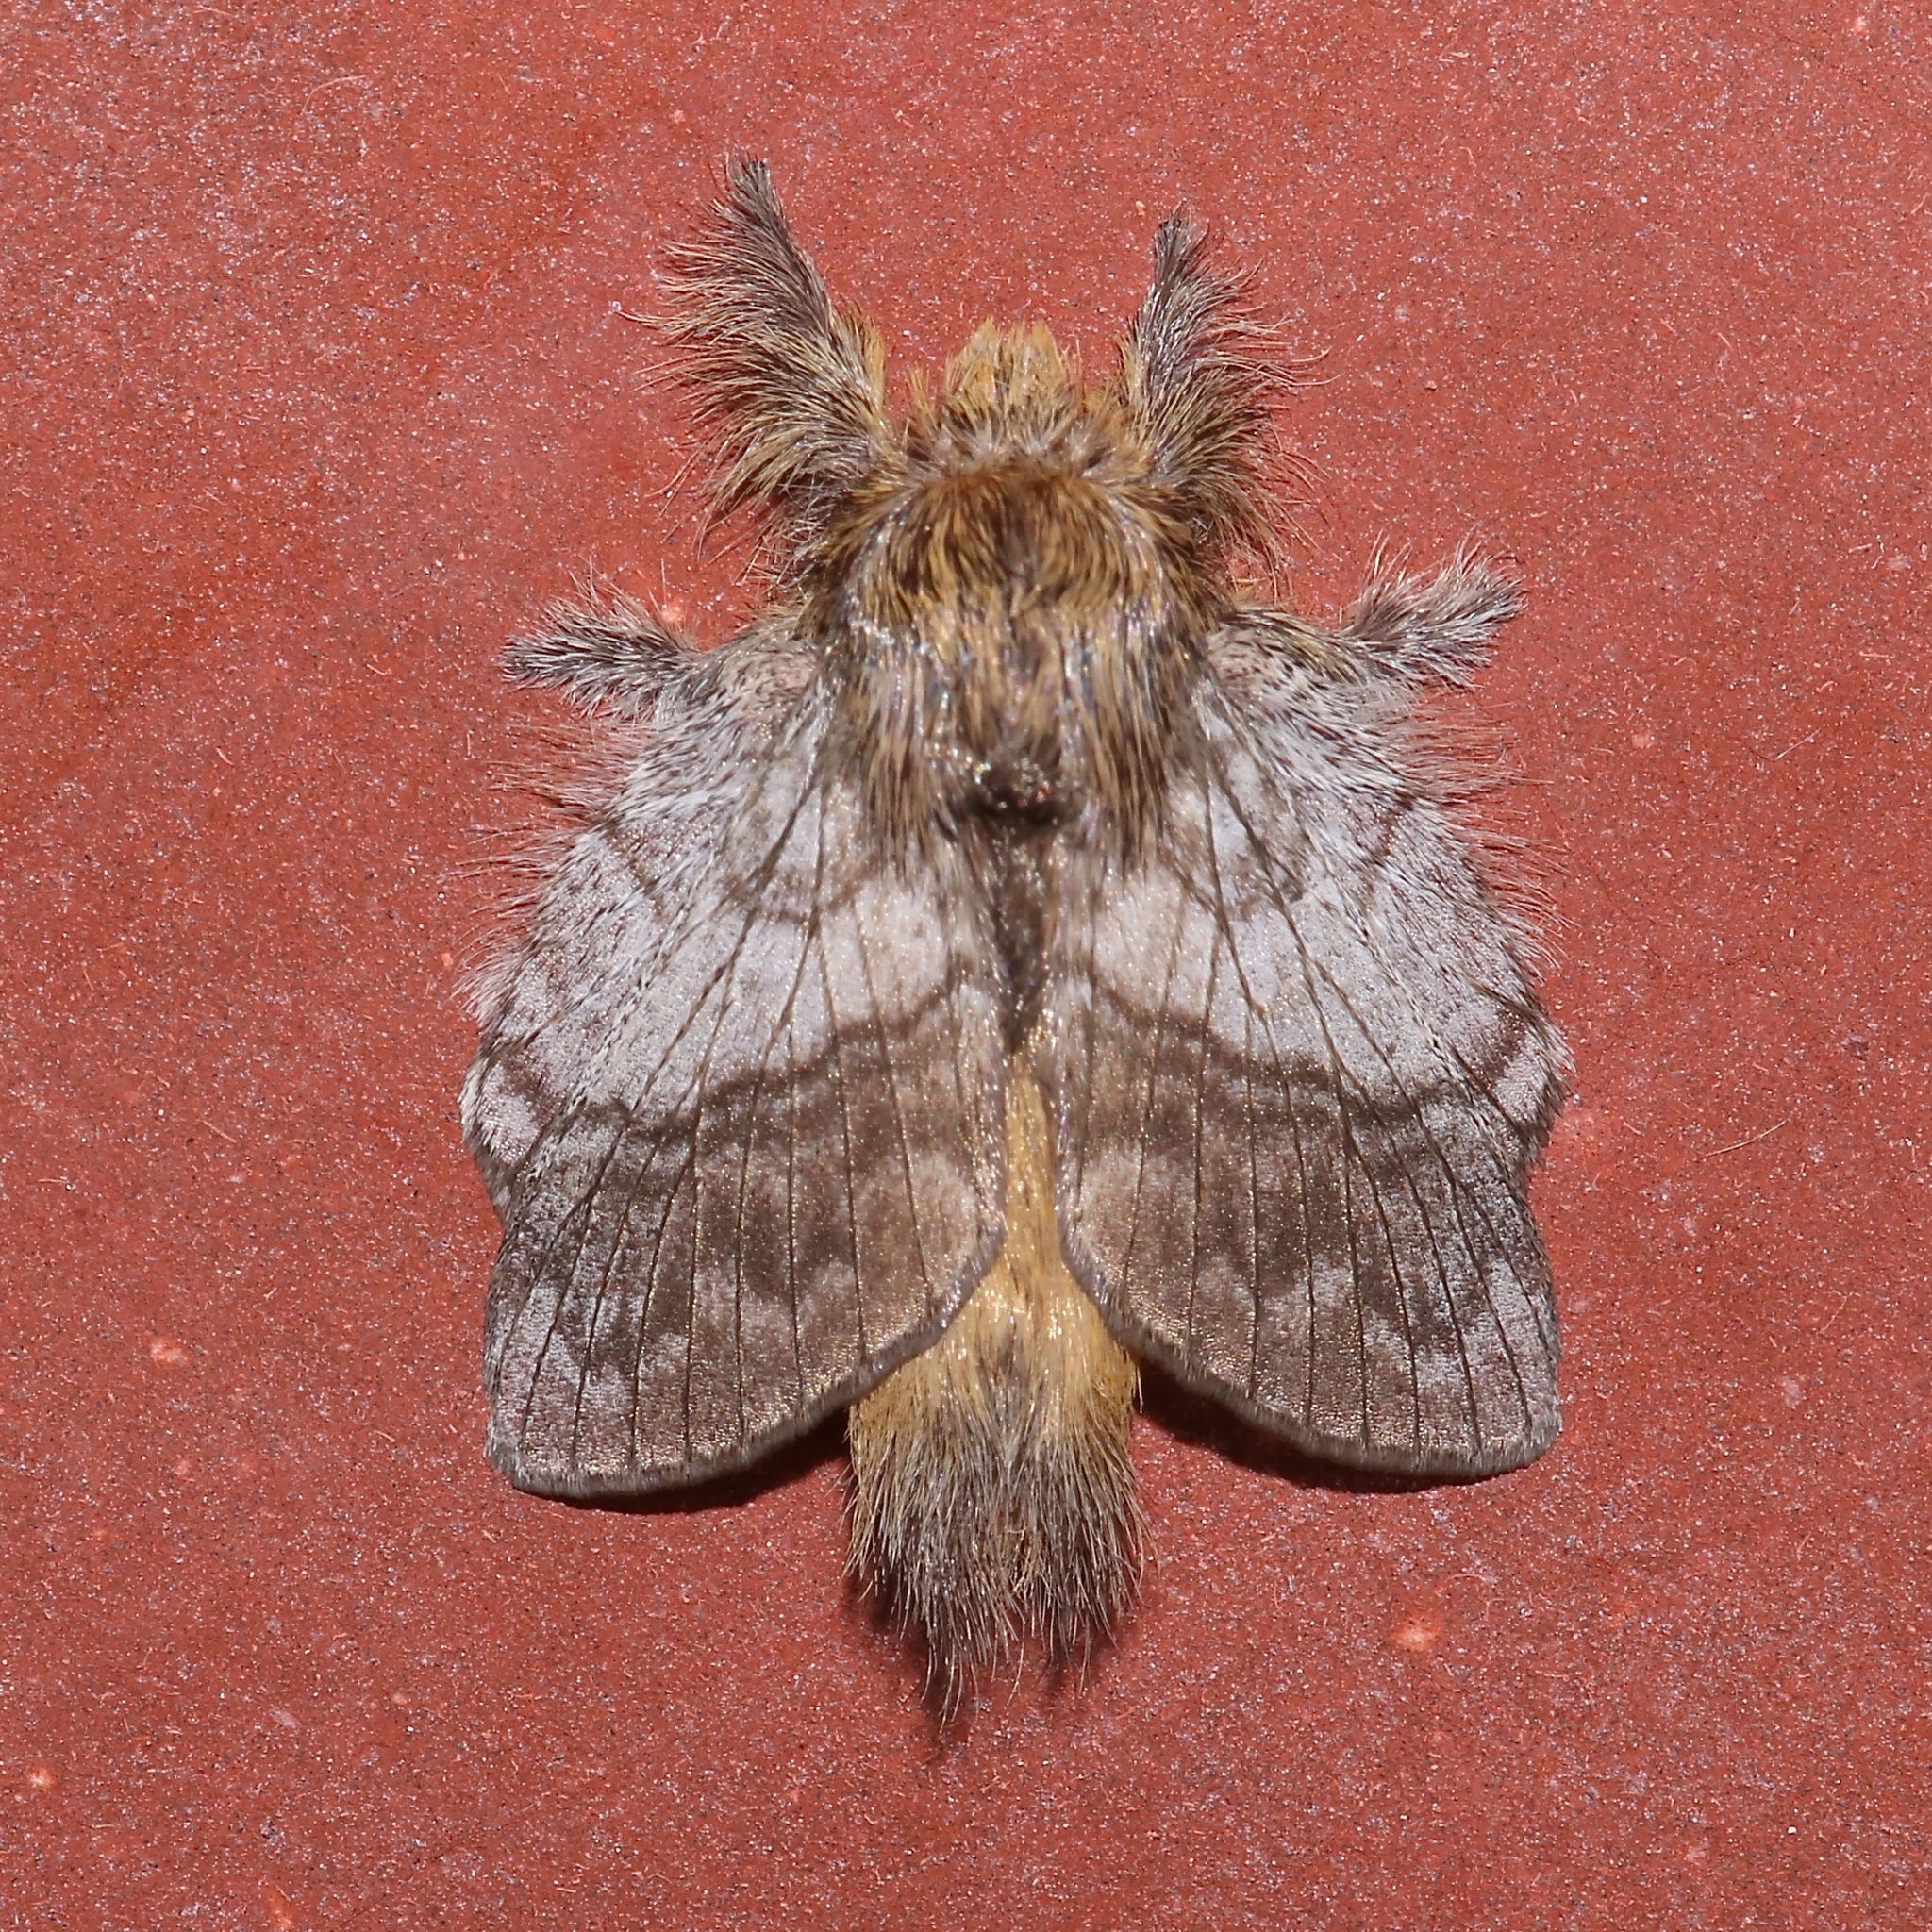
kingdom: Animalia
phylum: Arthropoda
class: Insecta
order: Lepidoptera
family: Lasiocampidae
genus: Euglyphis
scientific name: Euglyphis nebula
